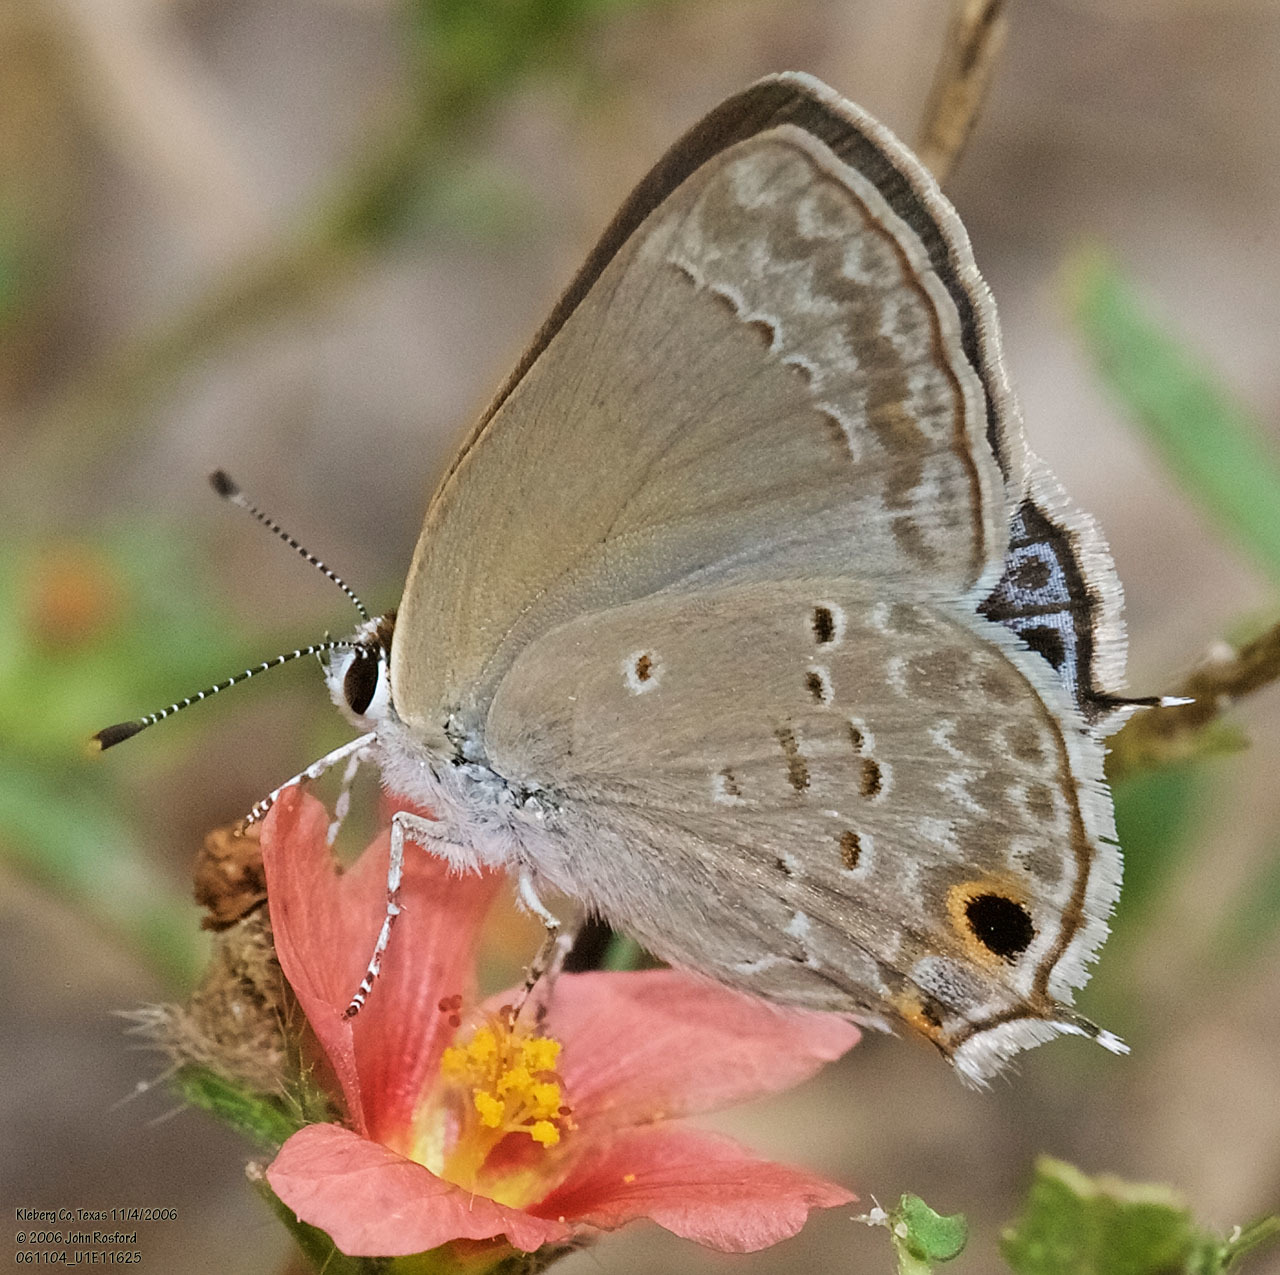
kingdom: Animalia
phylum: Arthropoda
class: Insecta
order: Lepidoptera
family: Lycaenidae
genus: Callicista
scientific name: Callicista columella
